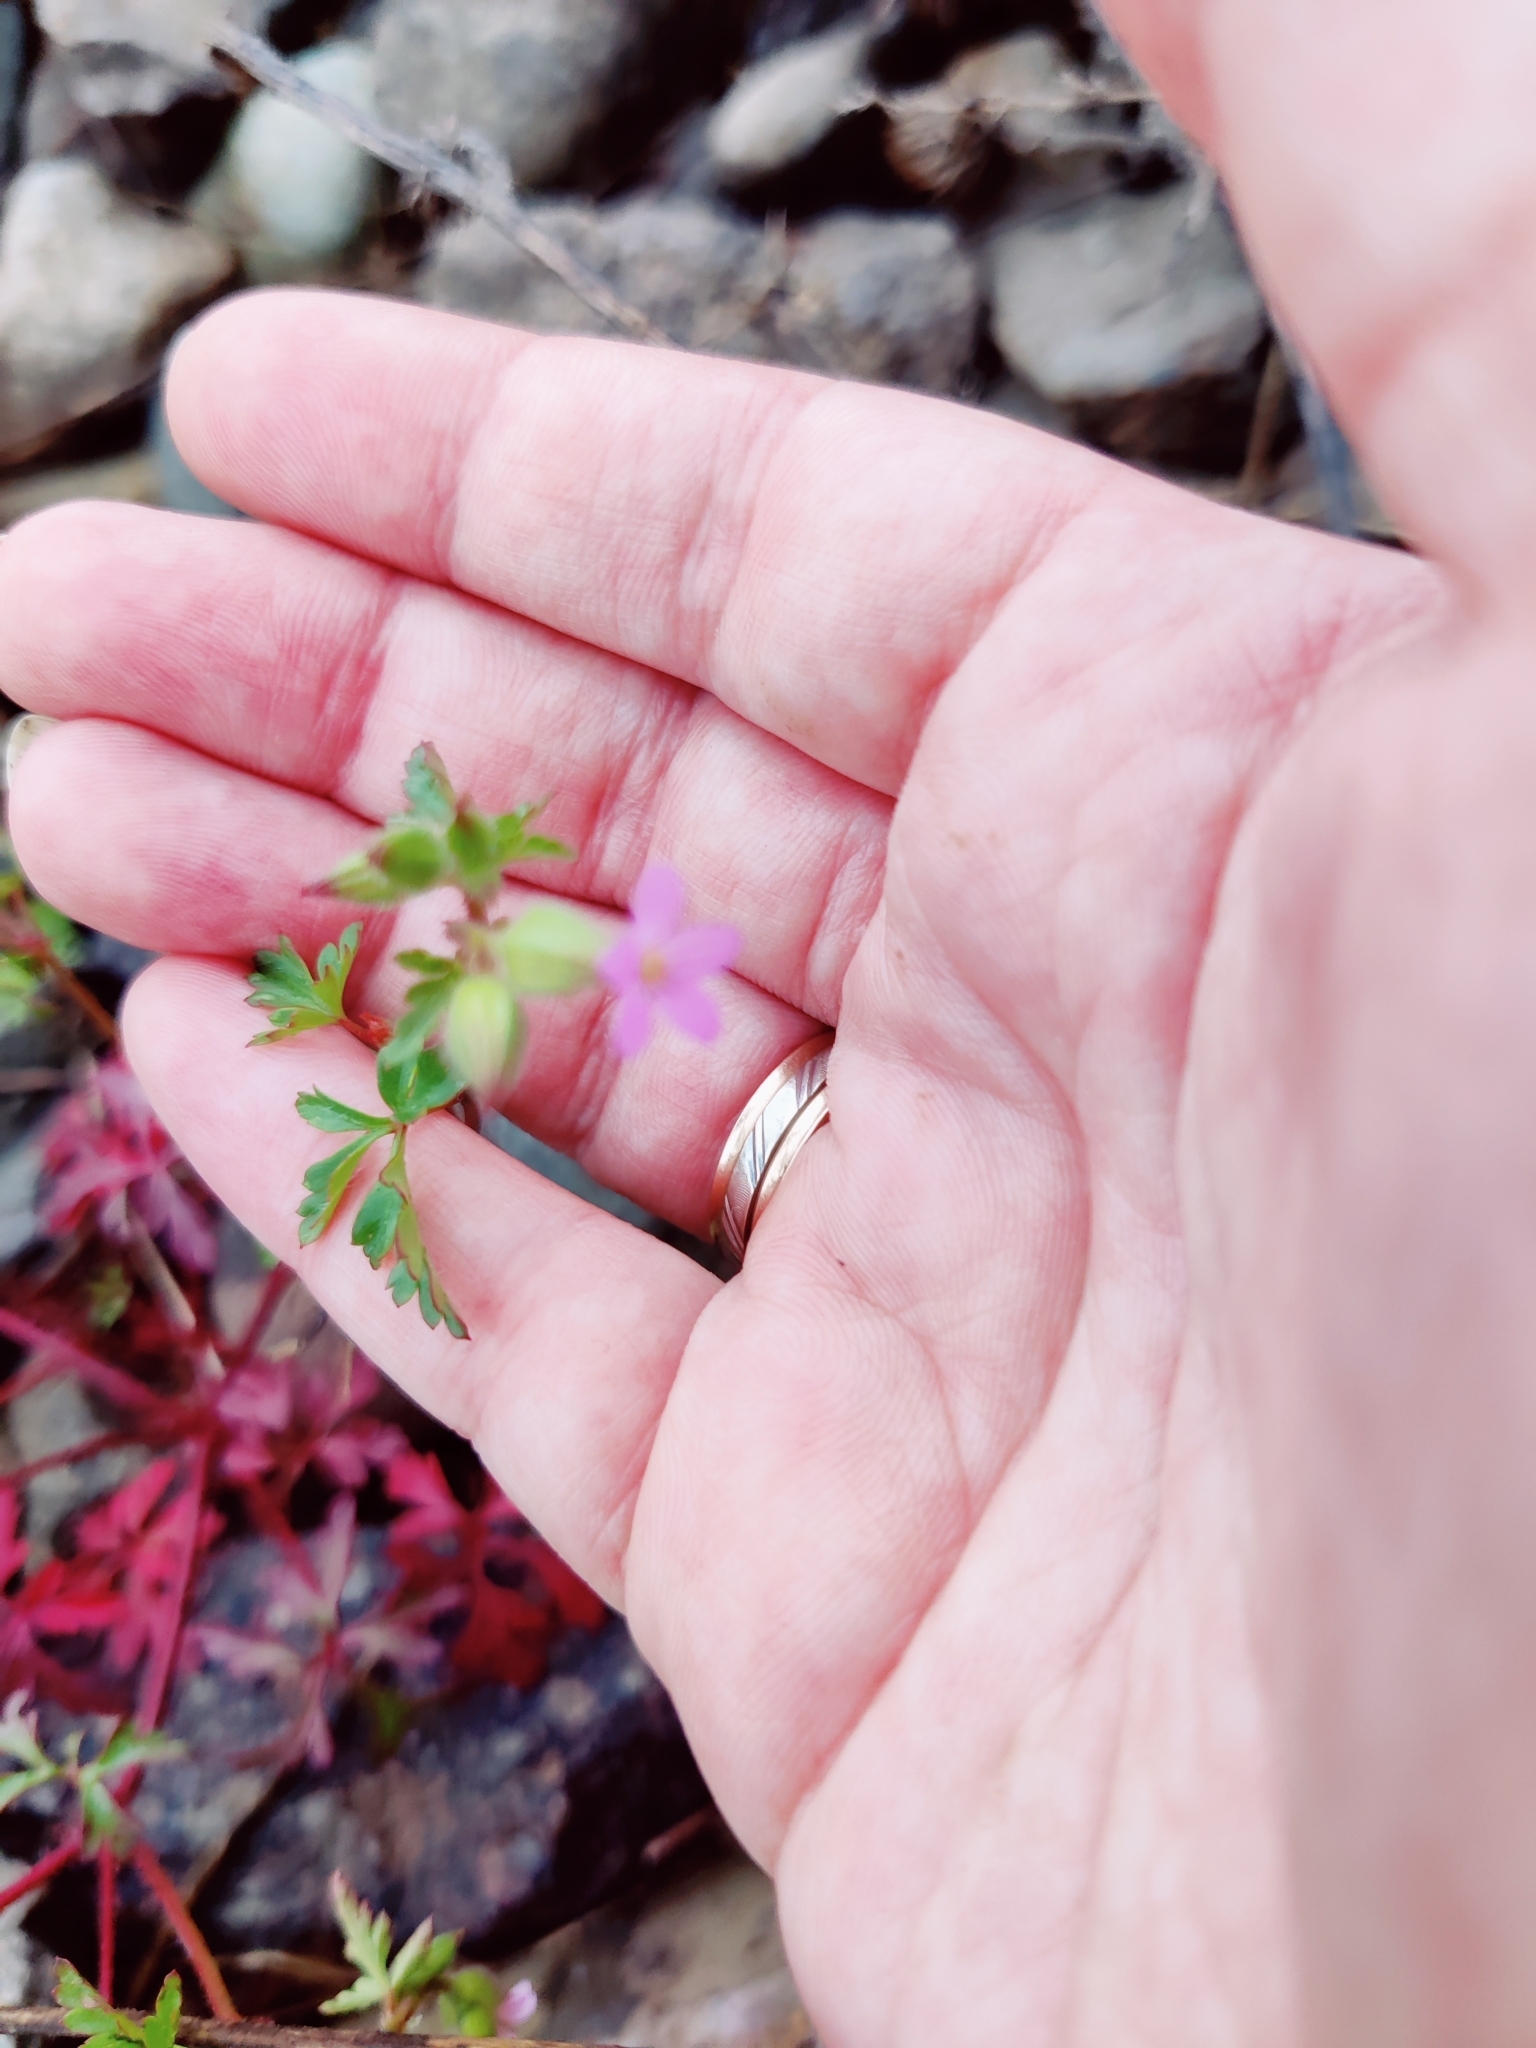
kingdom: Plantae
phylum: Tracheophyta
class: Magnoliopsida
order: Geraniales
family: Geraniaceae
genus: Geranium
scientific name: Geranium purpureum
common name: Little-robin
